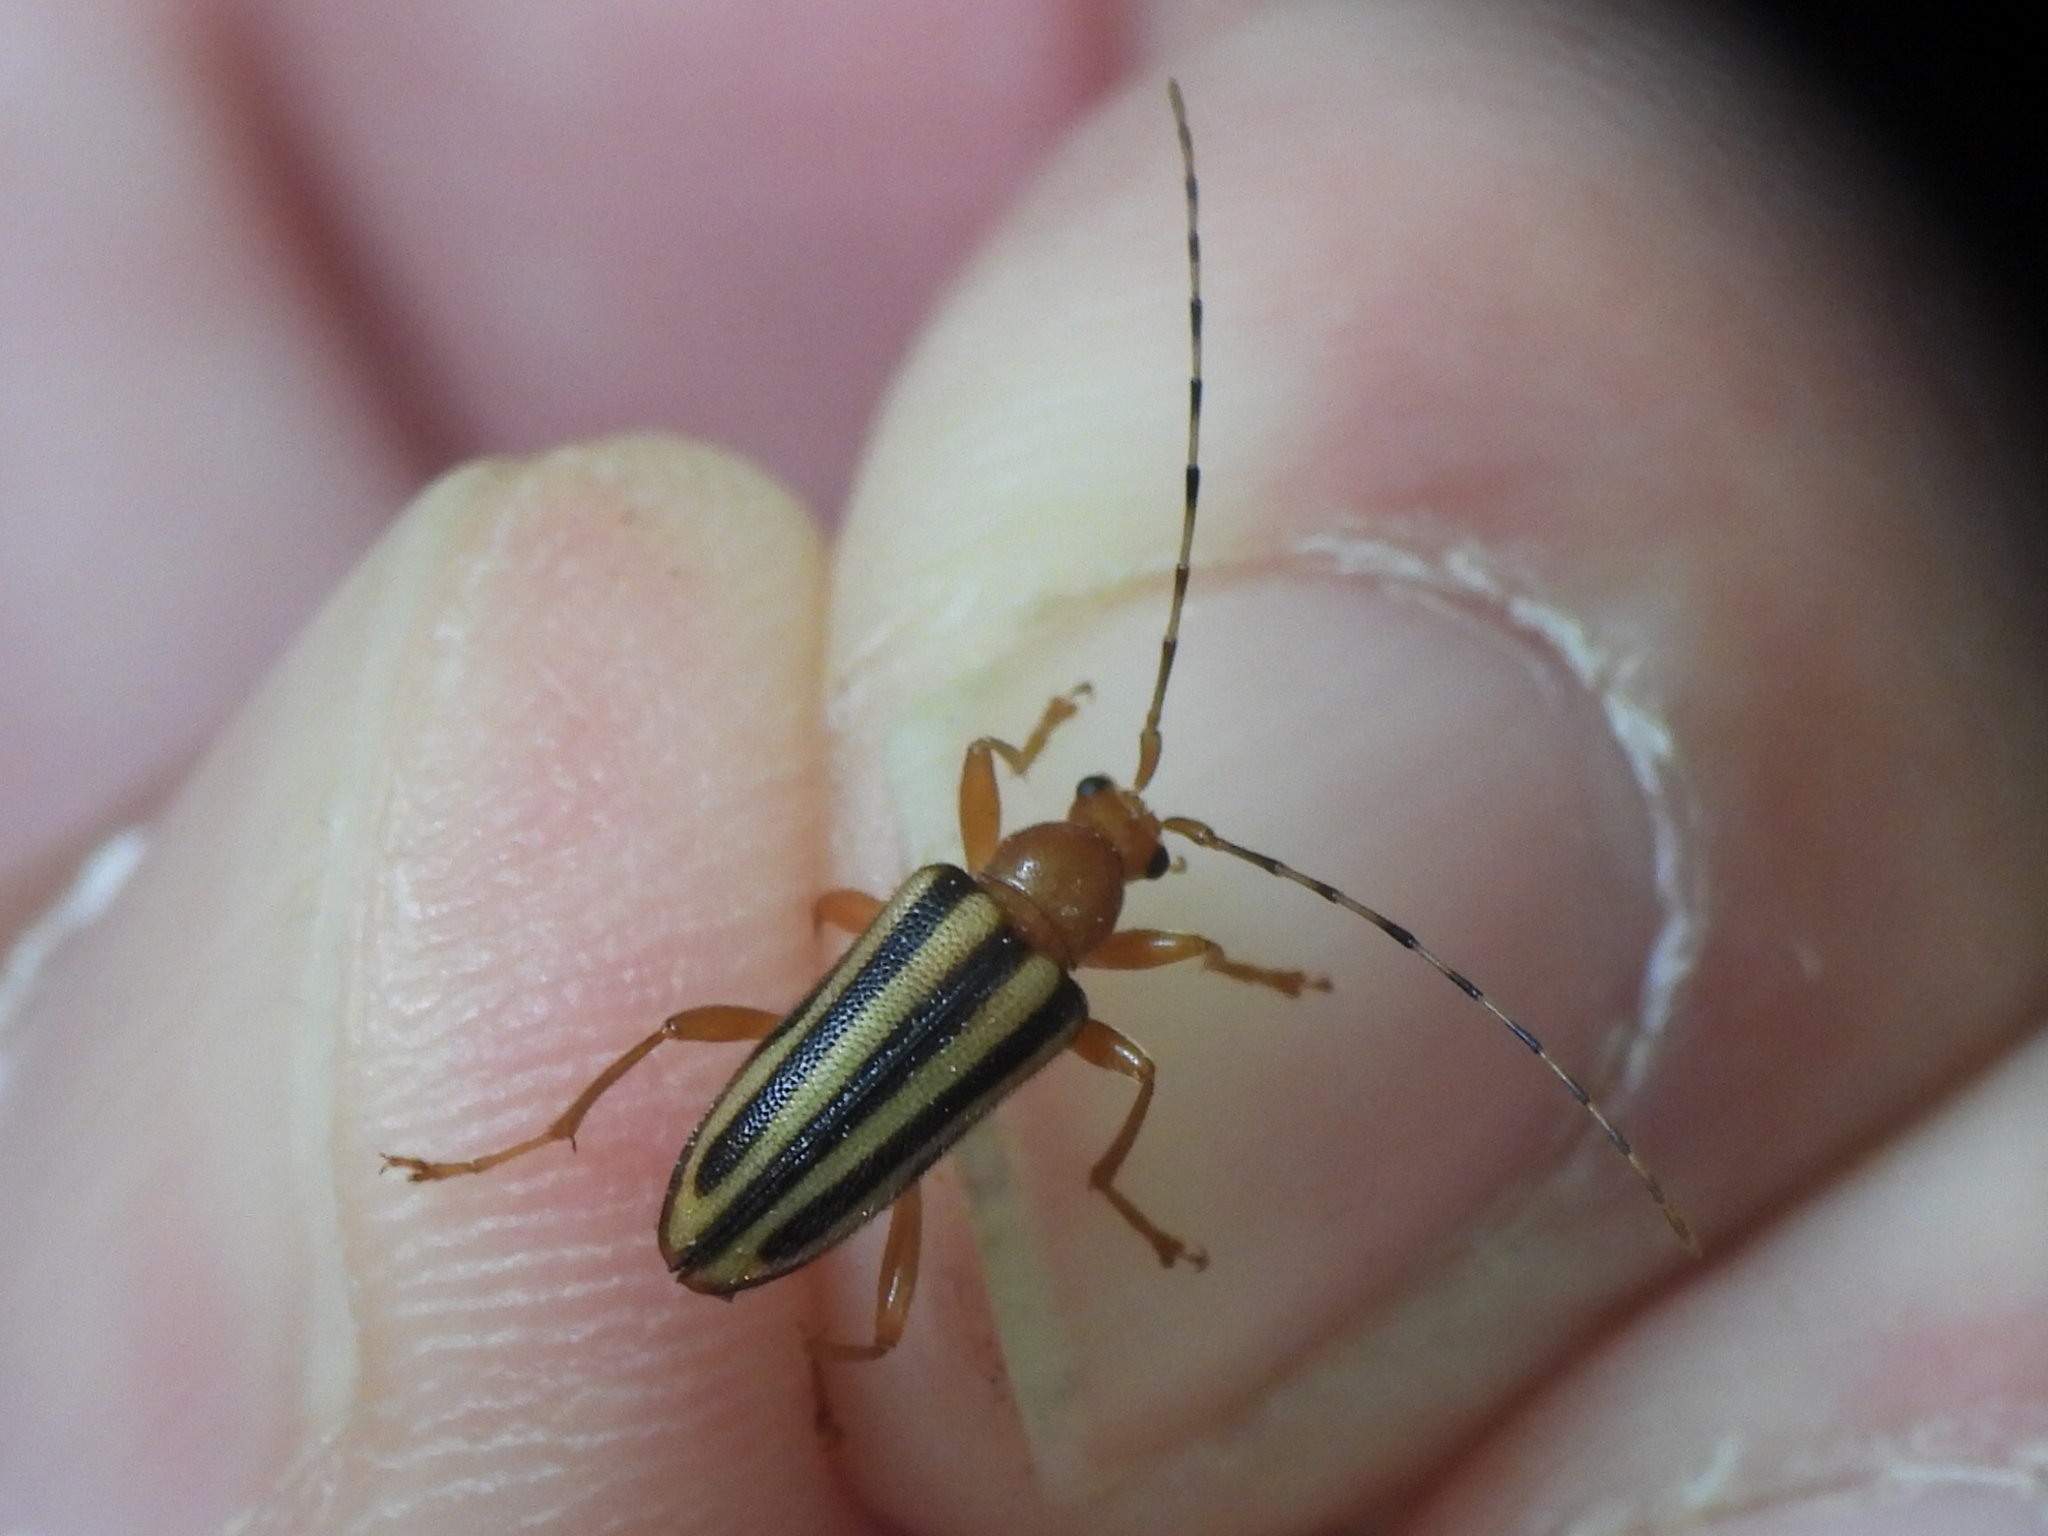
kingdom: Animalia
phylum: Arthropoda
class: Insecta
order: Coleoptera
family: Cerambycidae
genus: Metacmaeops
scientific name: Metacmaeops vittata
